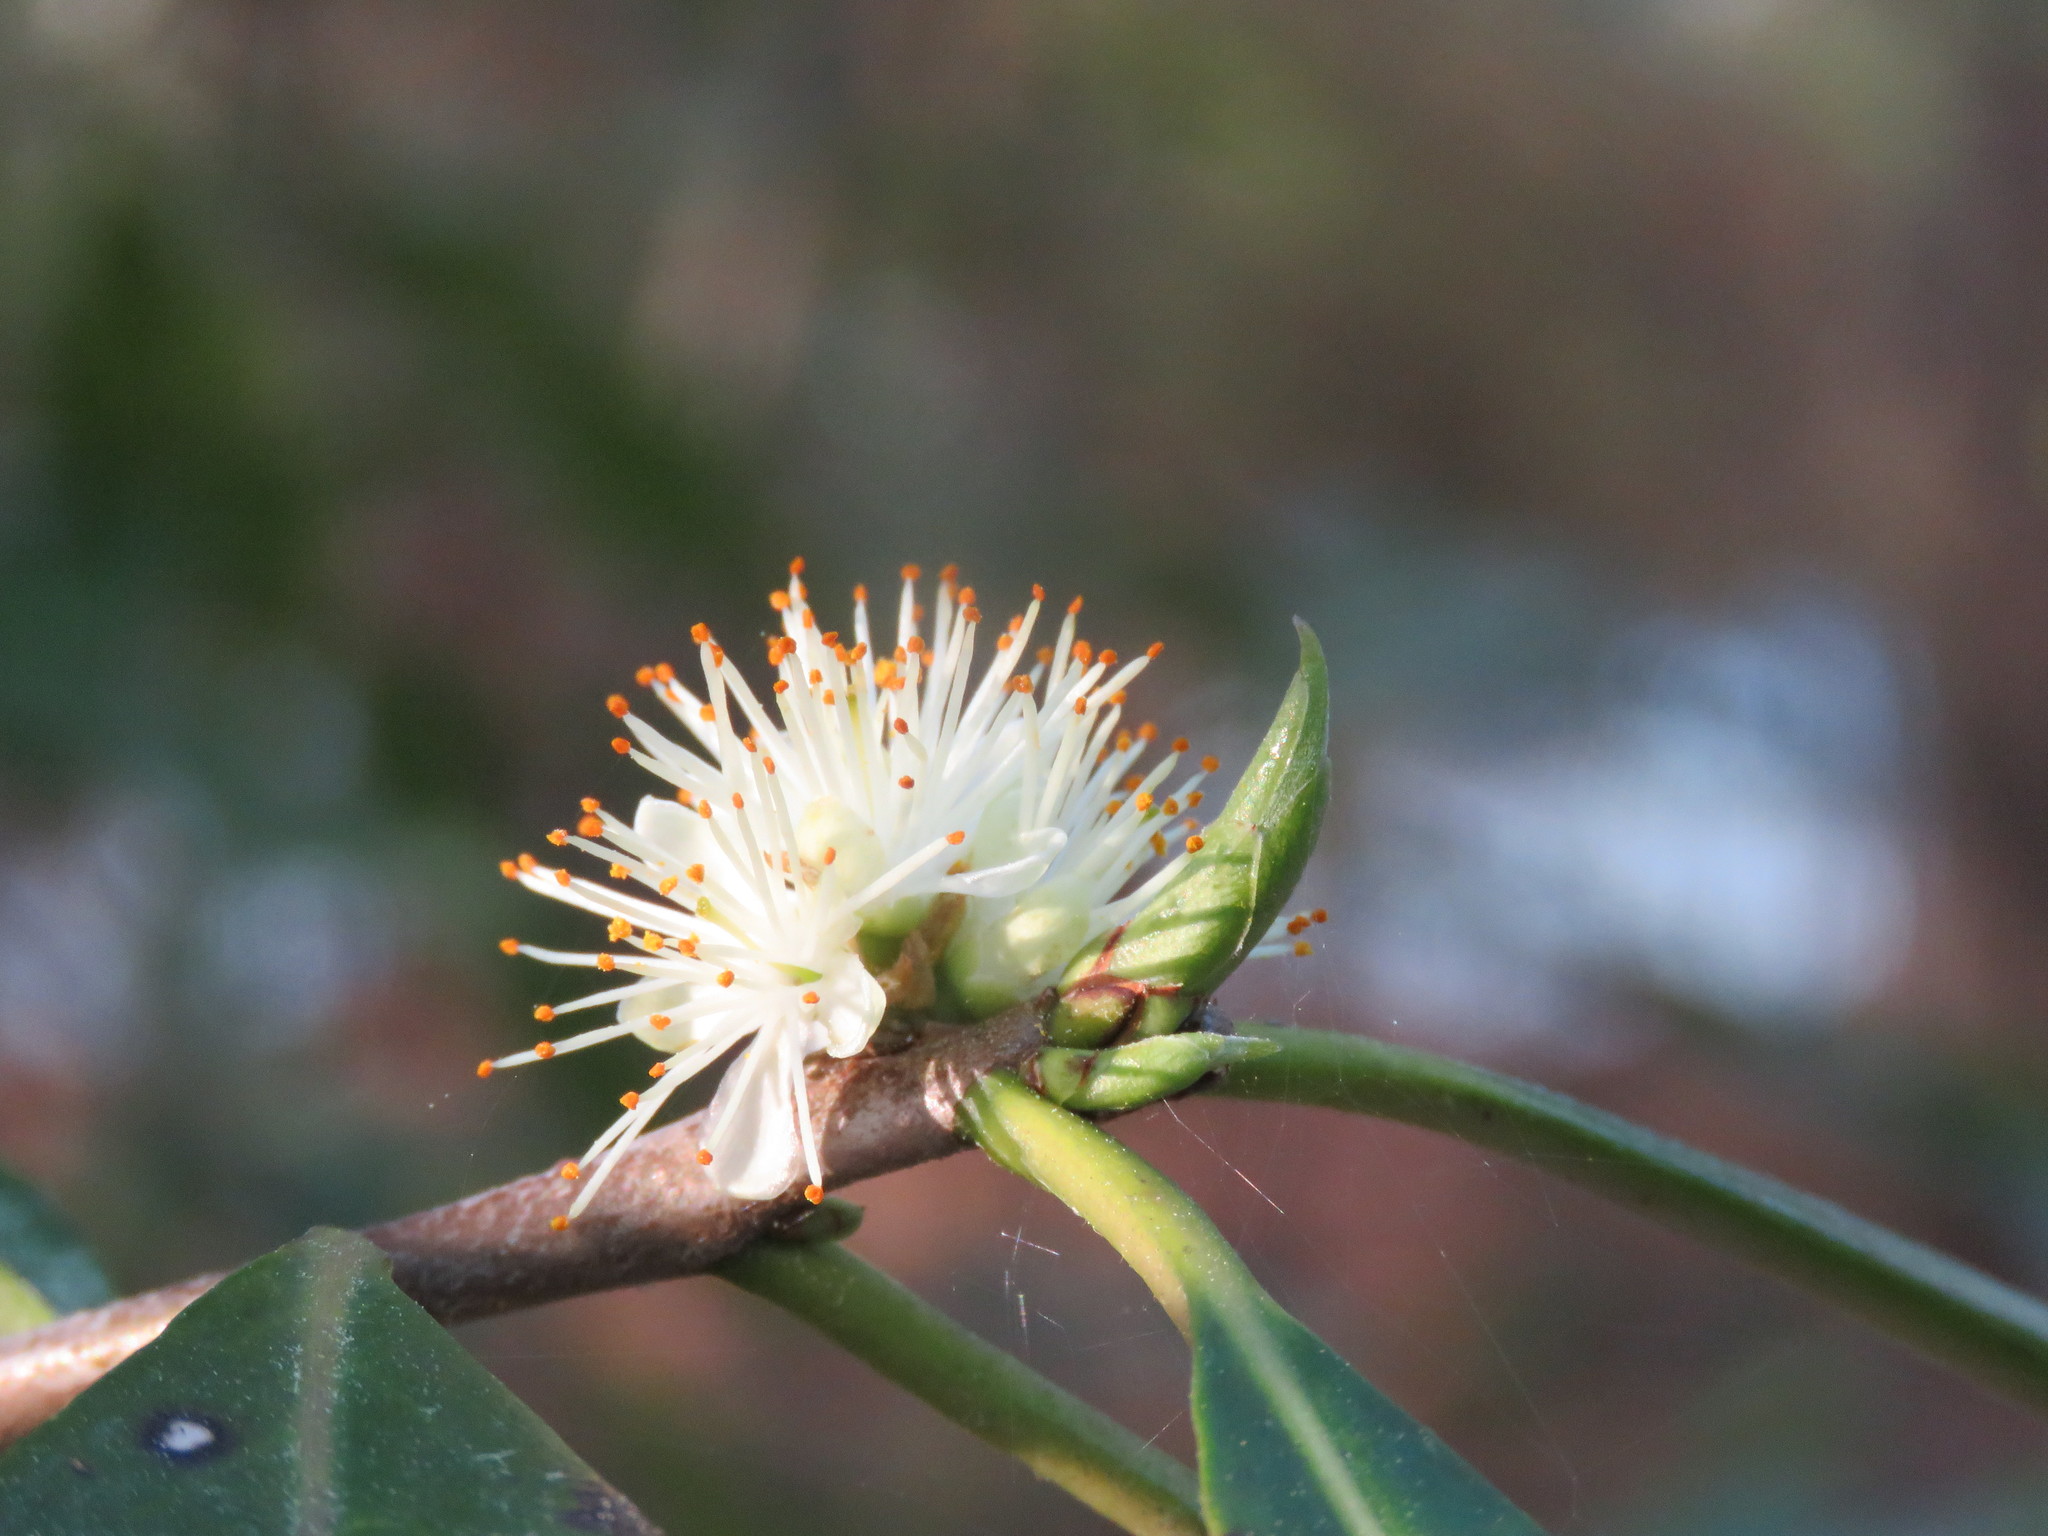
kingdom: Plantae
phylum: Tracheophyta
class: Magnoliopsida
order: Ericales
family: Symplocaceae
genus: Symplocos
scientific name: Symplocos tinctoria
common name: Horse-sugar
